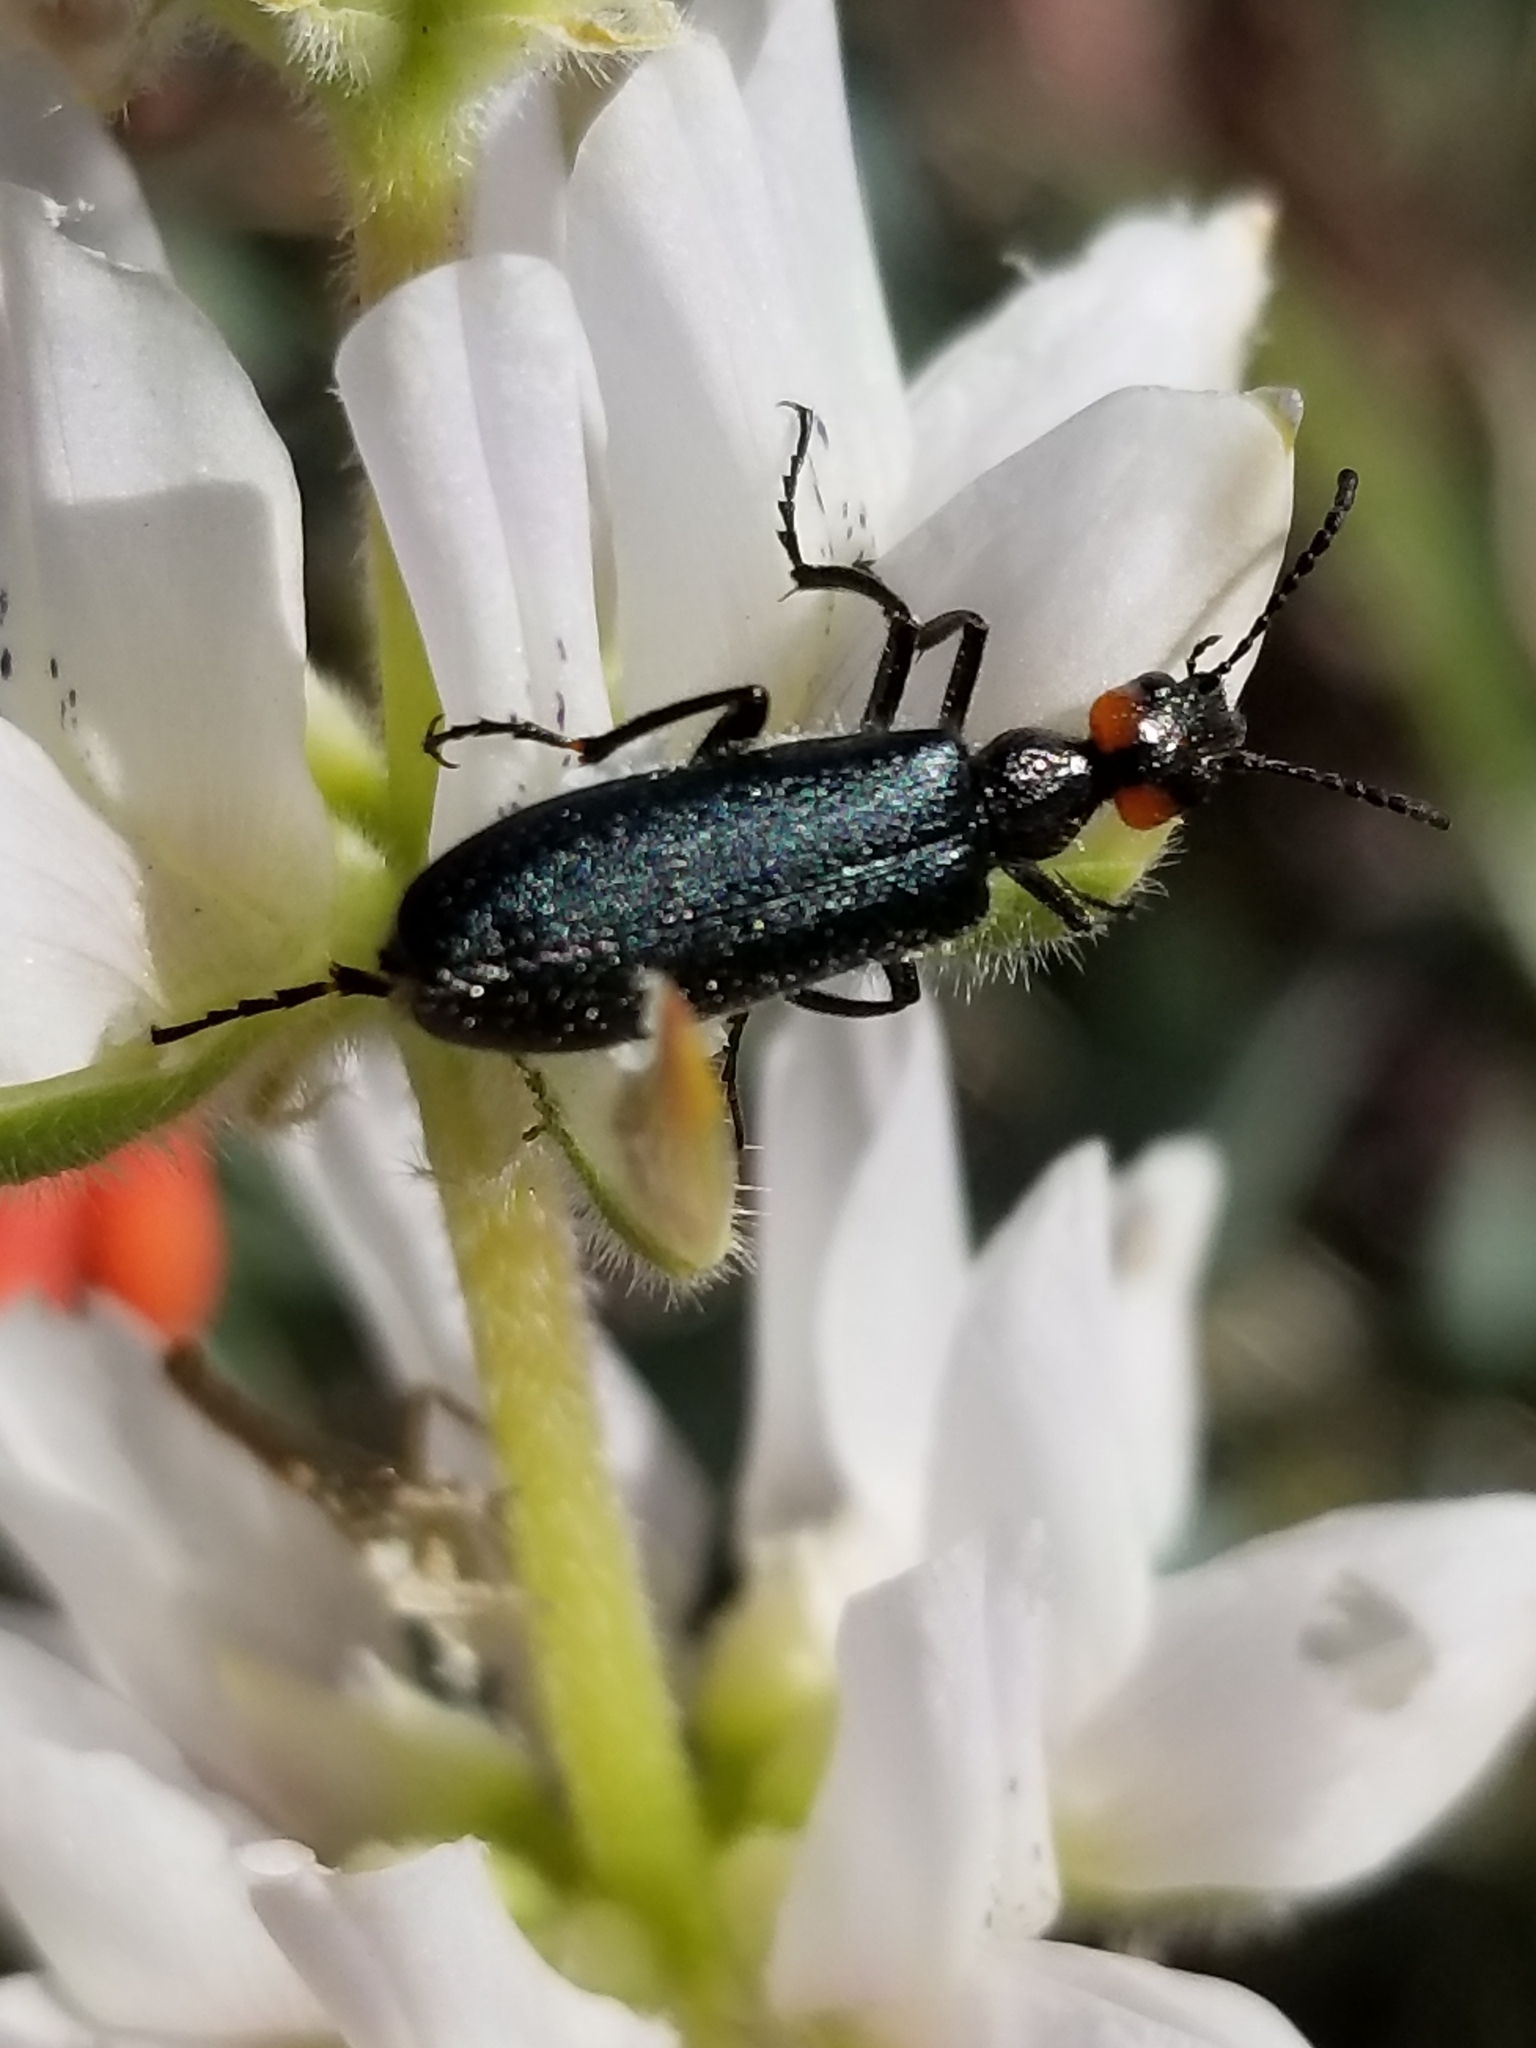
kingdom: Animalia
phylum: Arthropoda
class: Insecta
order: Coleoptera
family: Meloidae
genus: Lytta
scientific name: Lytta auriculata
